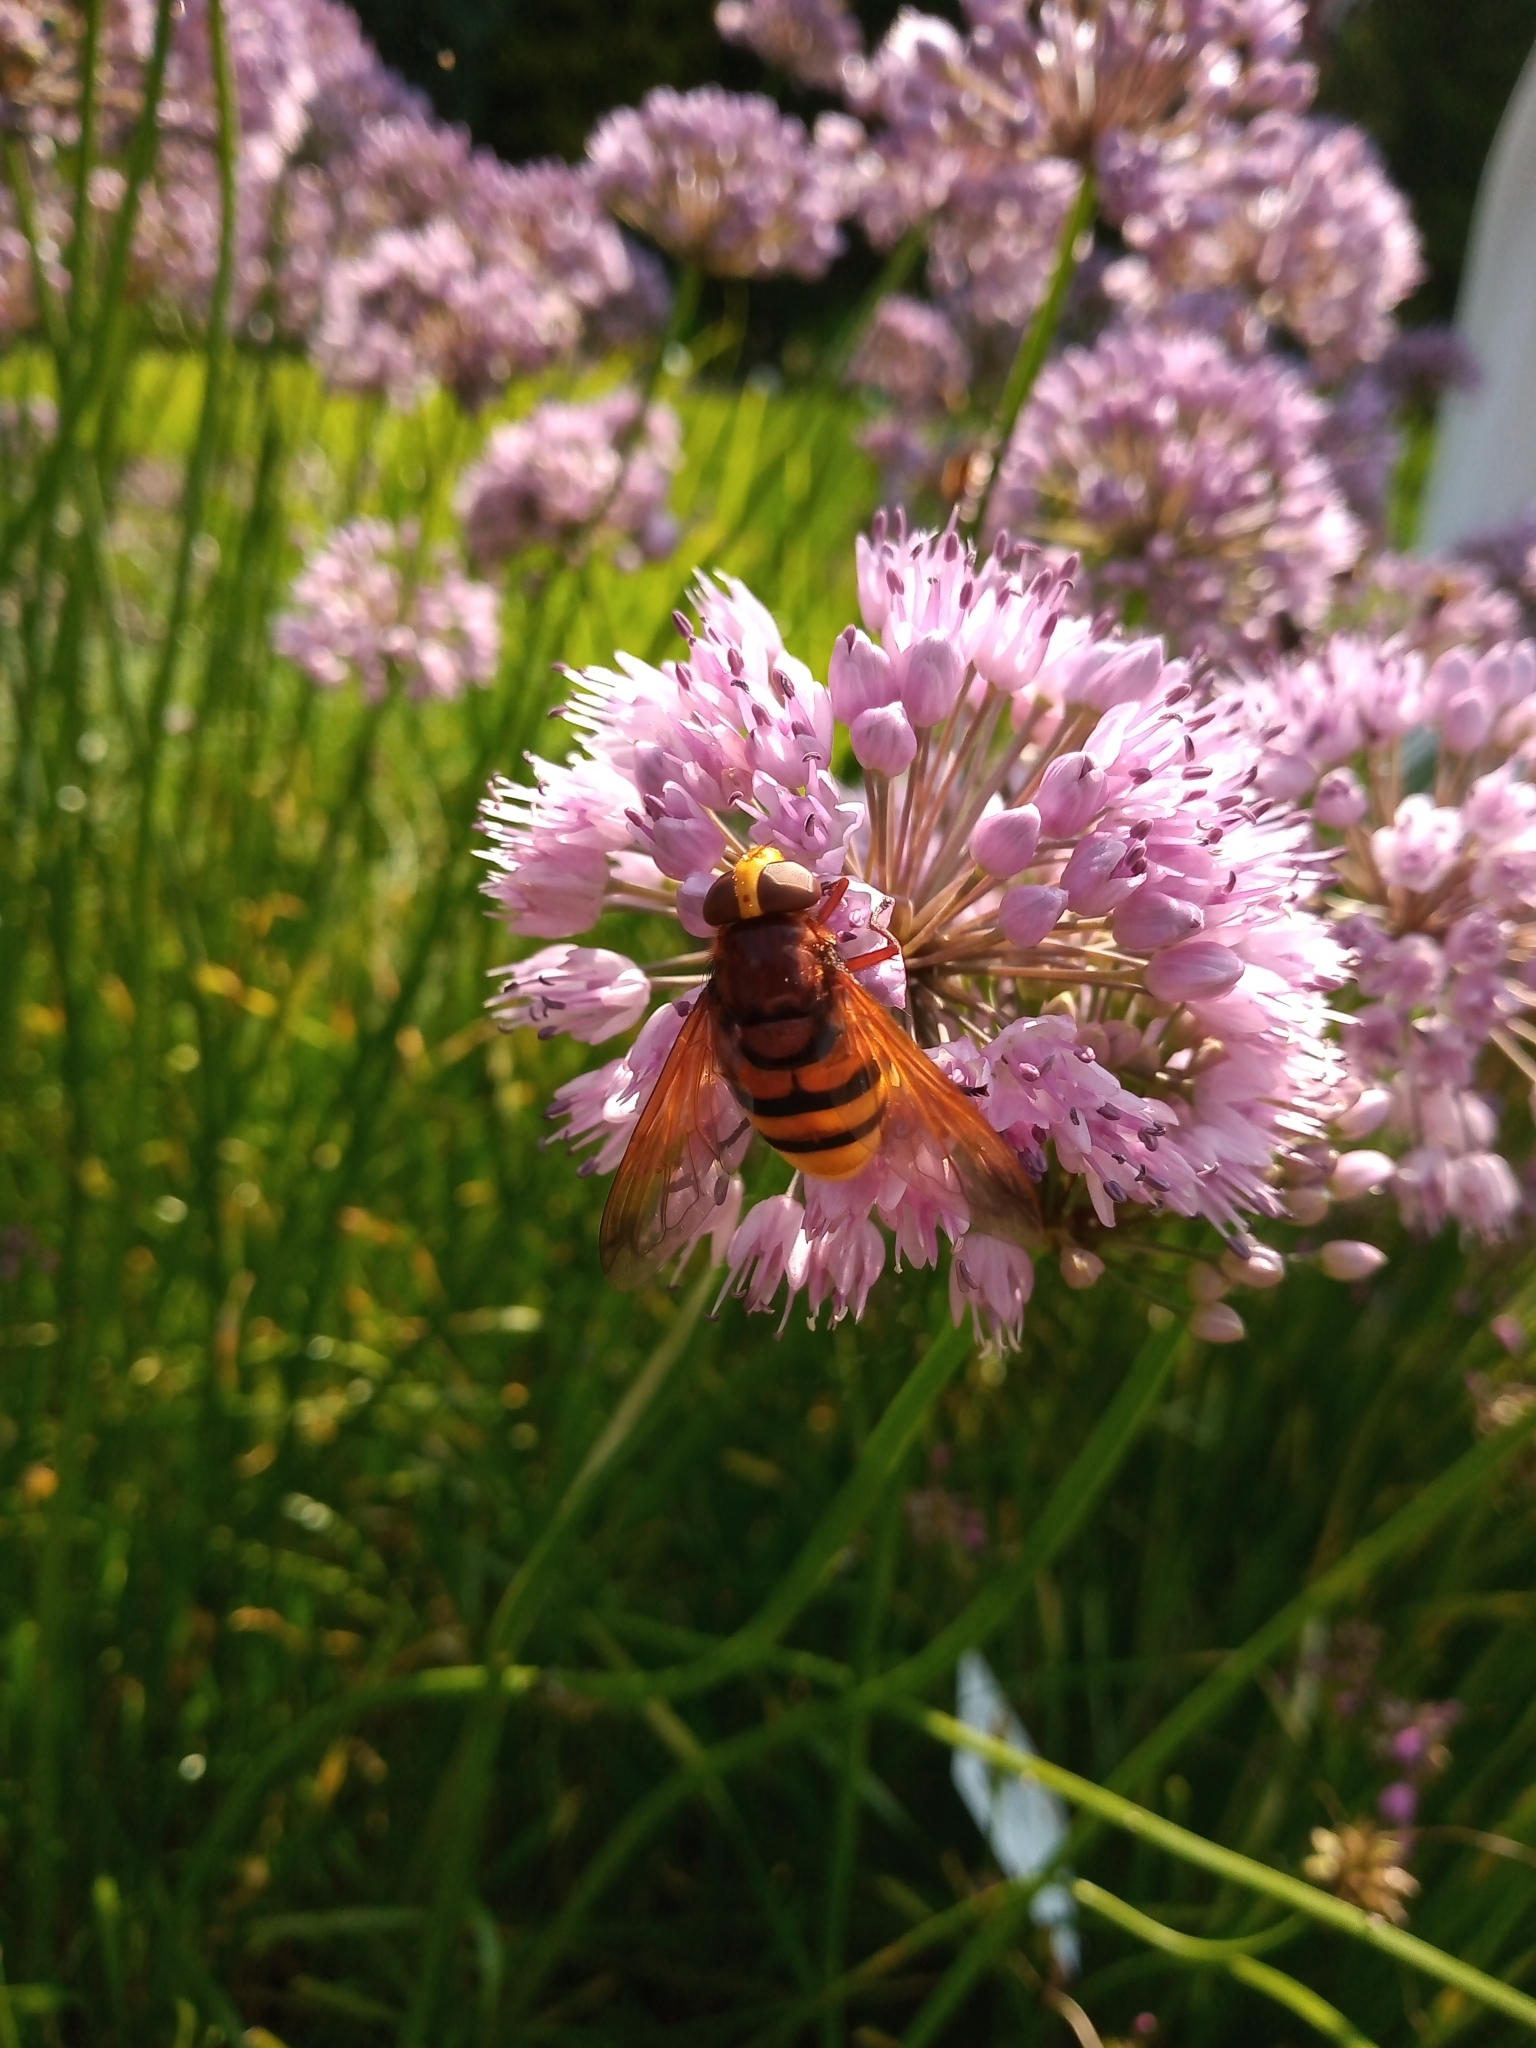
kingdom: Animalia
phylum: Arthropoda
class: Insecta
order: Diptera
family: Syrphidae
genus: Volucella
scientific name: Volucella zonaria
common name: Hornet hoverfly
